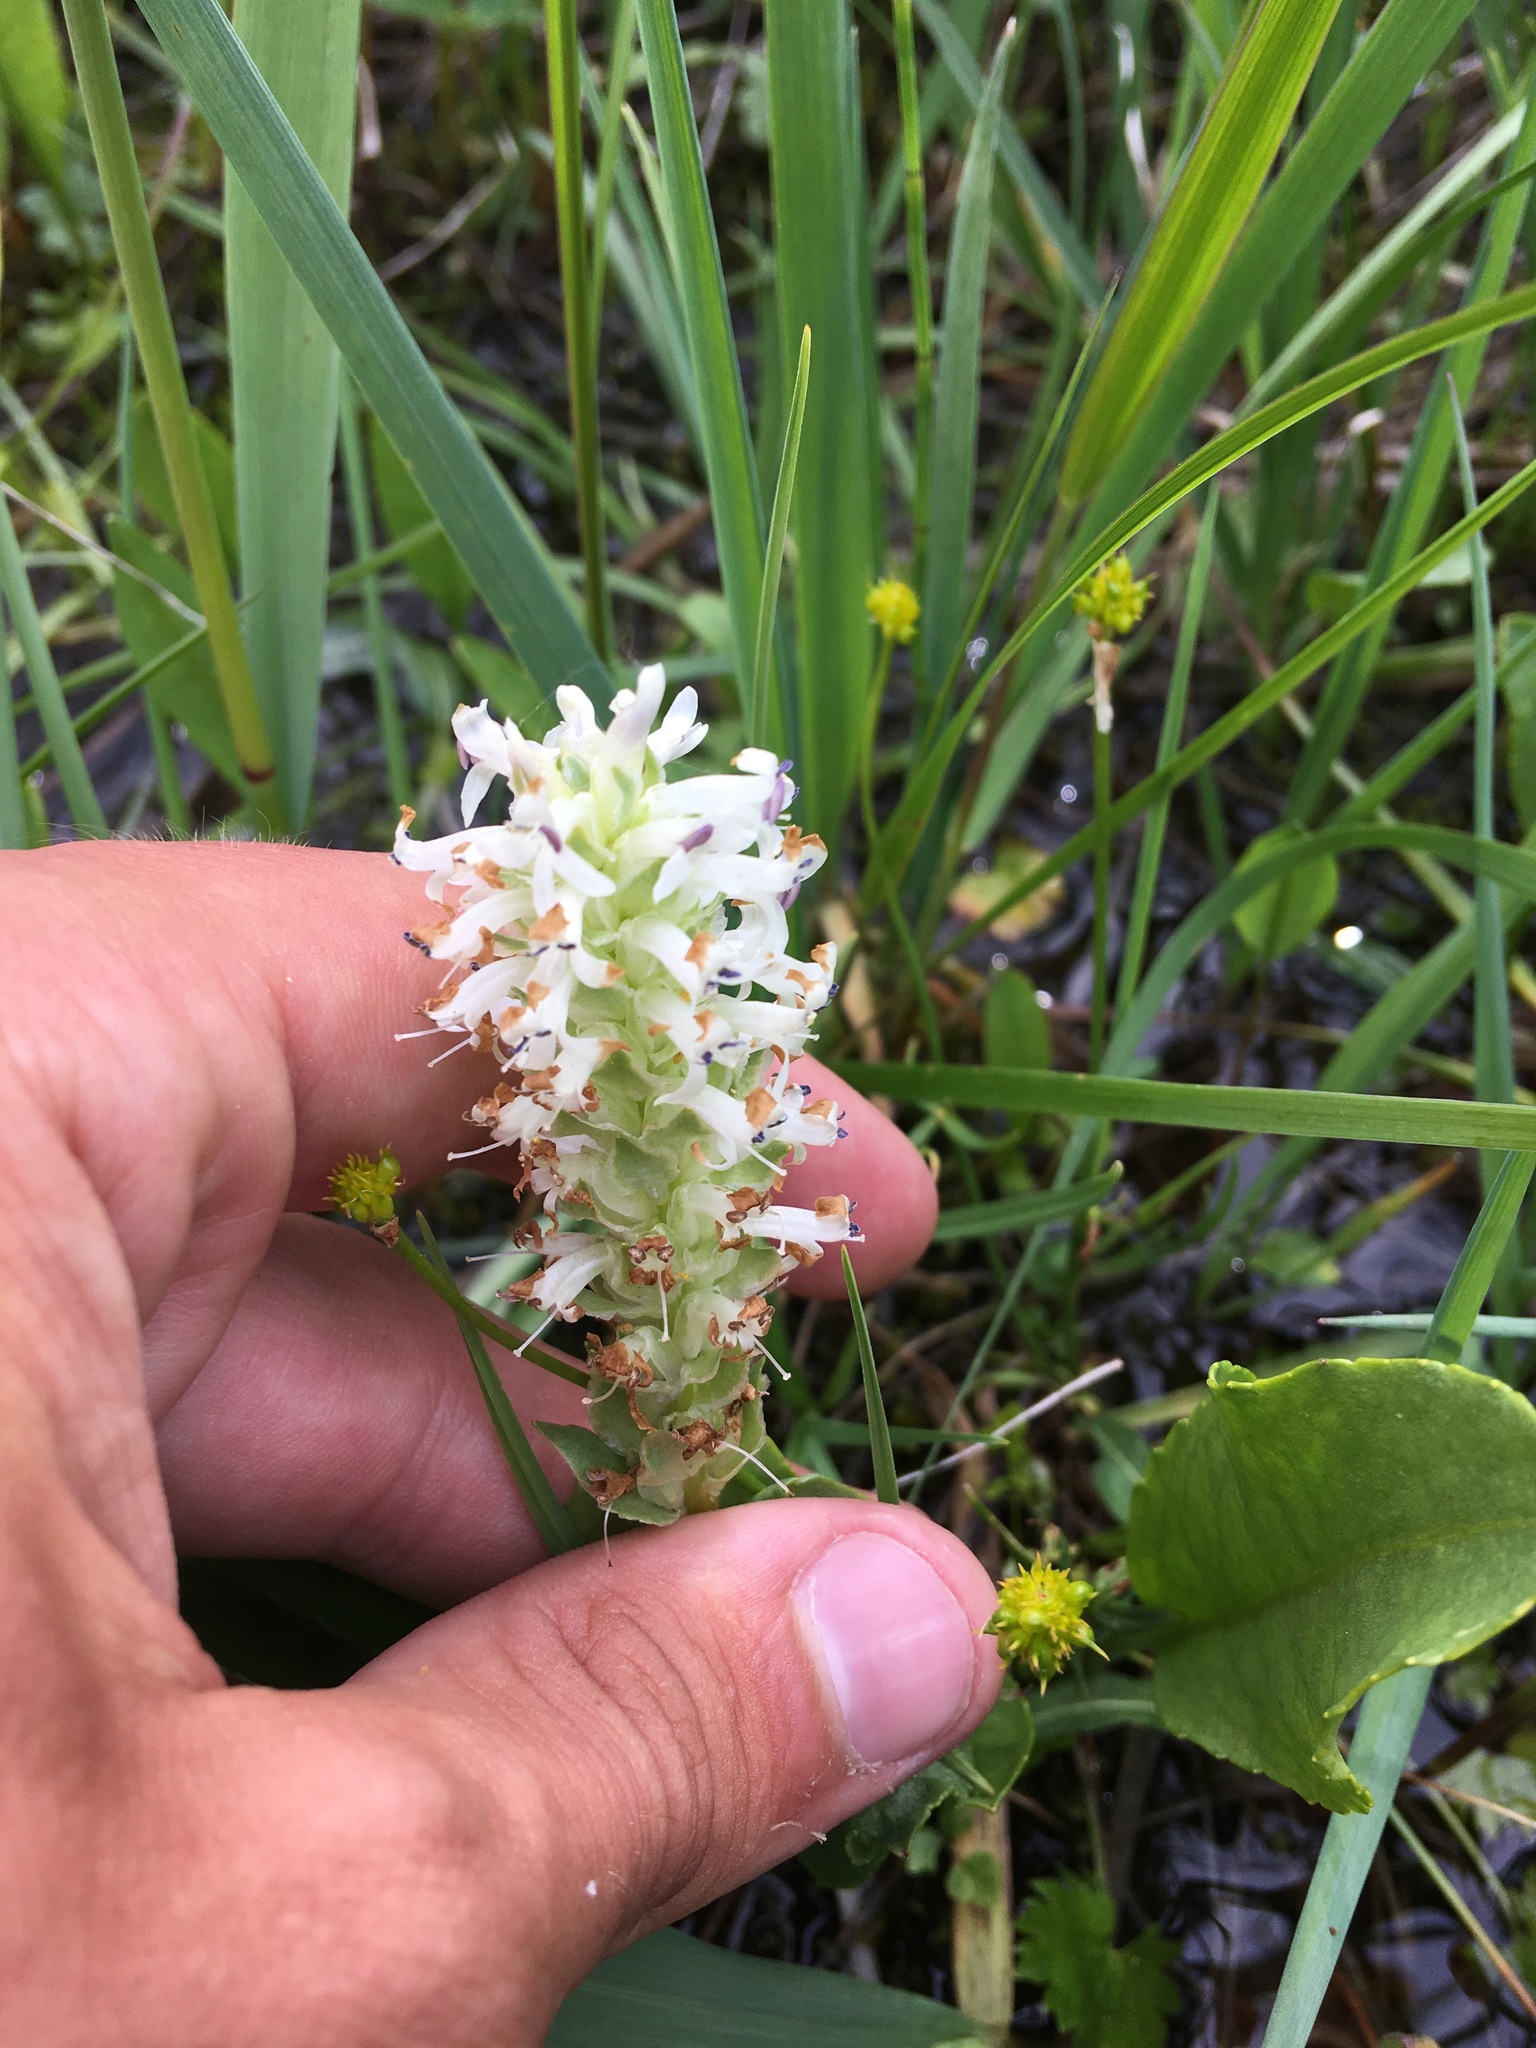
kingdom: Plantae
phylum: Tracheophyta
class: Magnoliopsida
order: Lamiales
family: Plantaginaceae
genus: Lagotis
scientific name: Lagotis integrifolia
